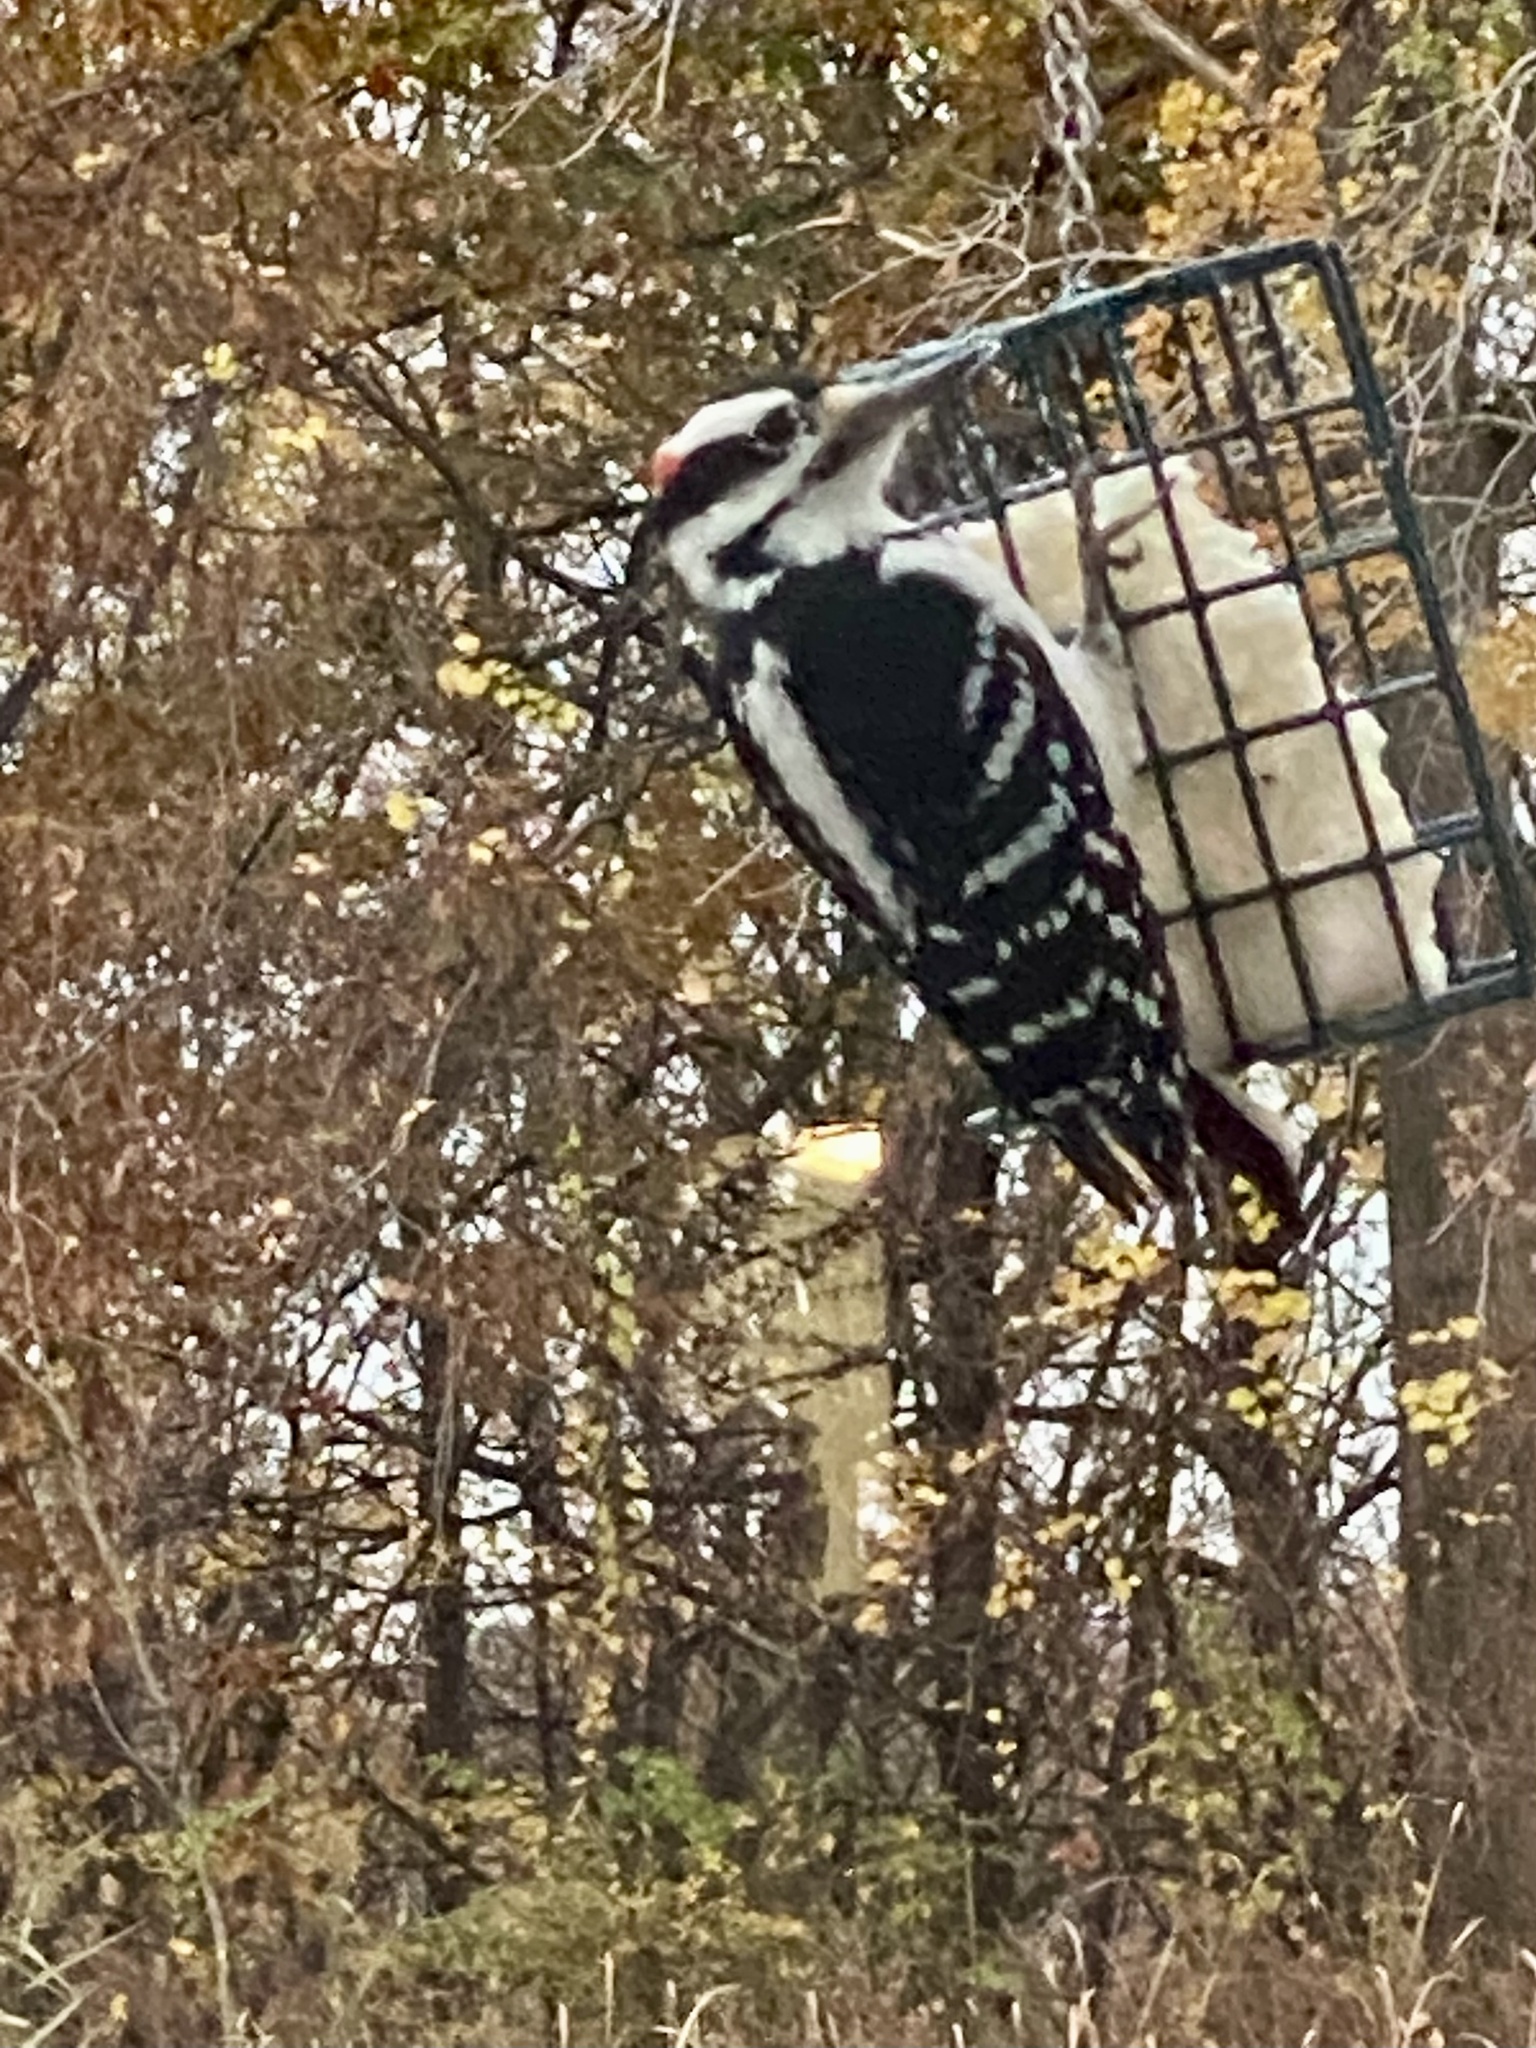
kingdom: Animalia
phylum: Chordata
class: Aves
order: Piciformes
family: Picidae
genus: Leuconotopicus
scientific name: Leuconotopicus villosus
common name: Hairy woodpecker
